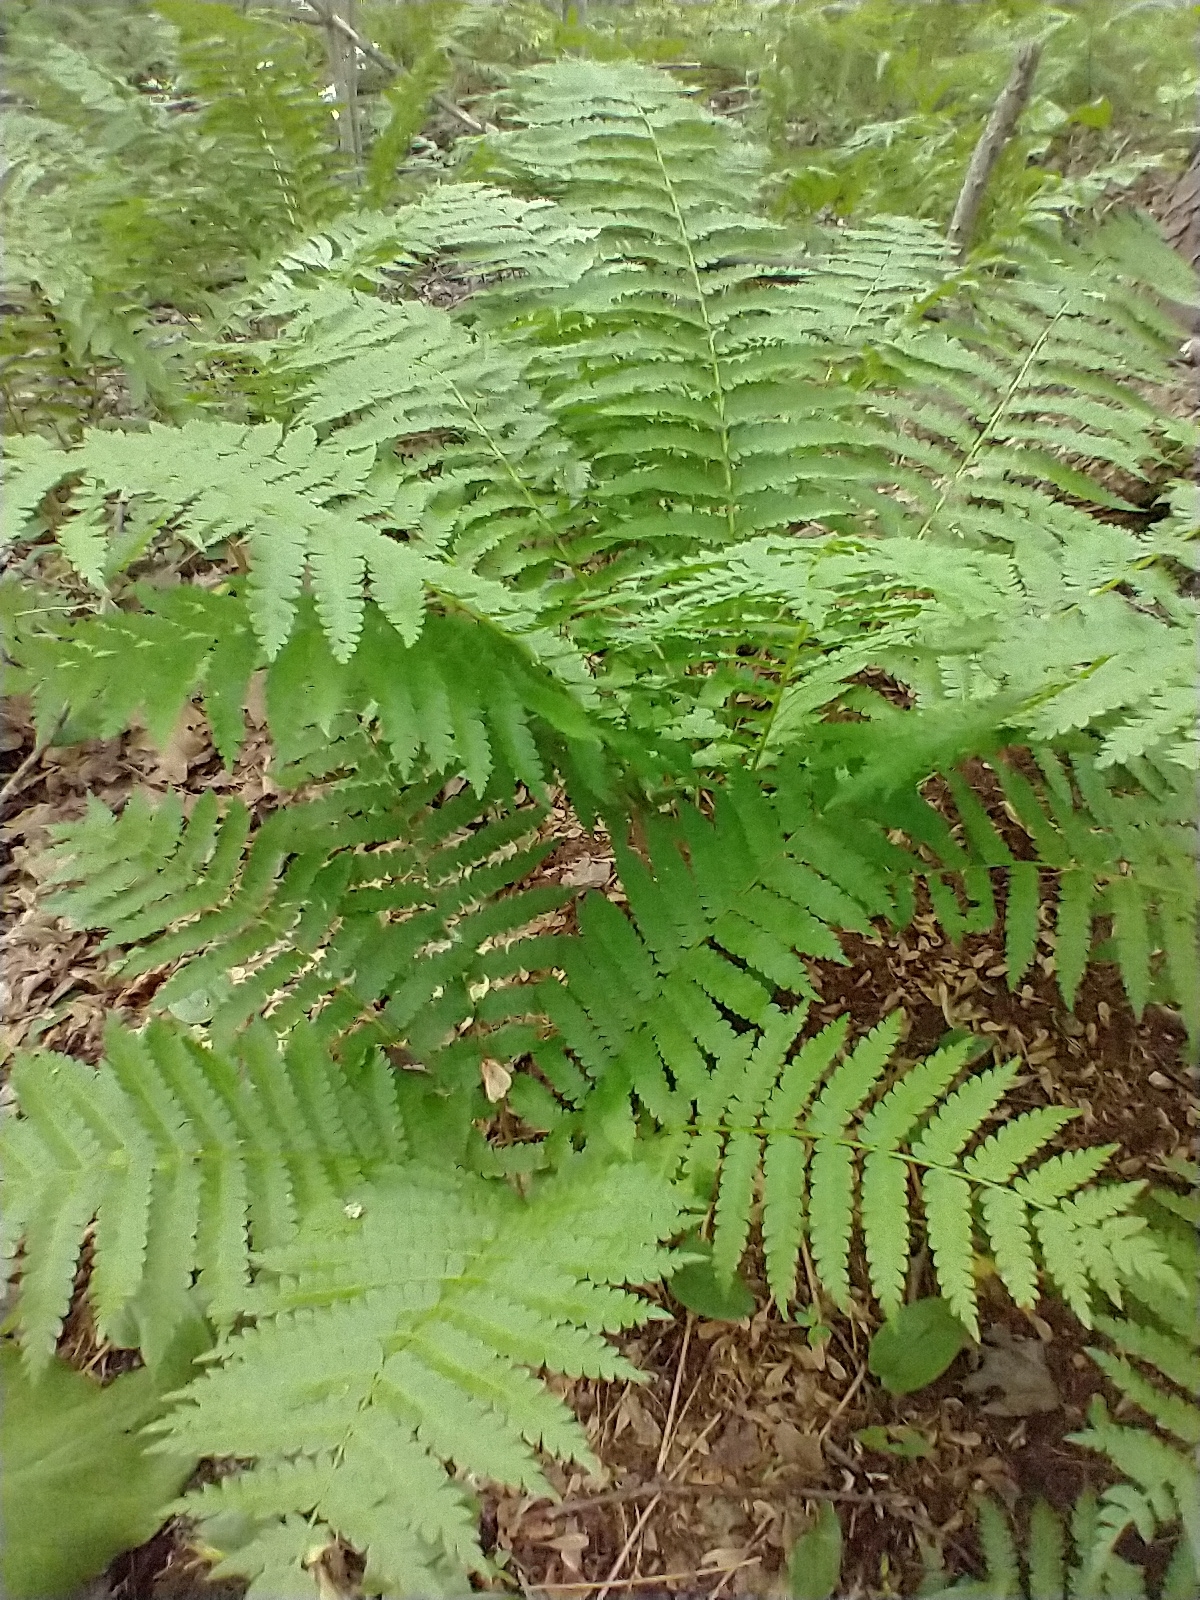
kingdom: Plantae
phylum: Tracheophyta
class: Polypodiopsida
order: Osmundales
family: Osmundaceae
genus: Osmundastrum
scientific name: Osmundastrum cinnamomeum
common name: Cinnamon fern
